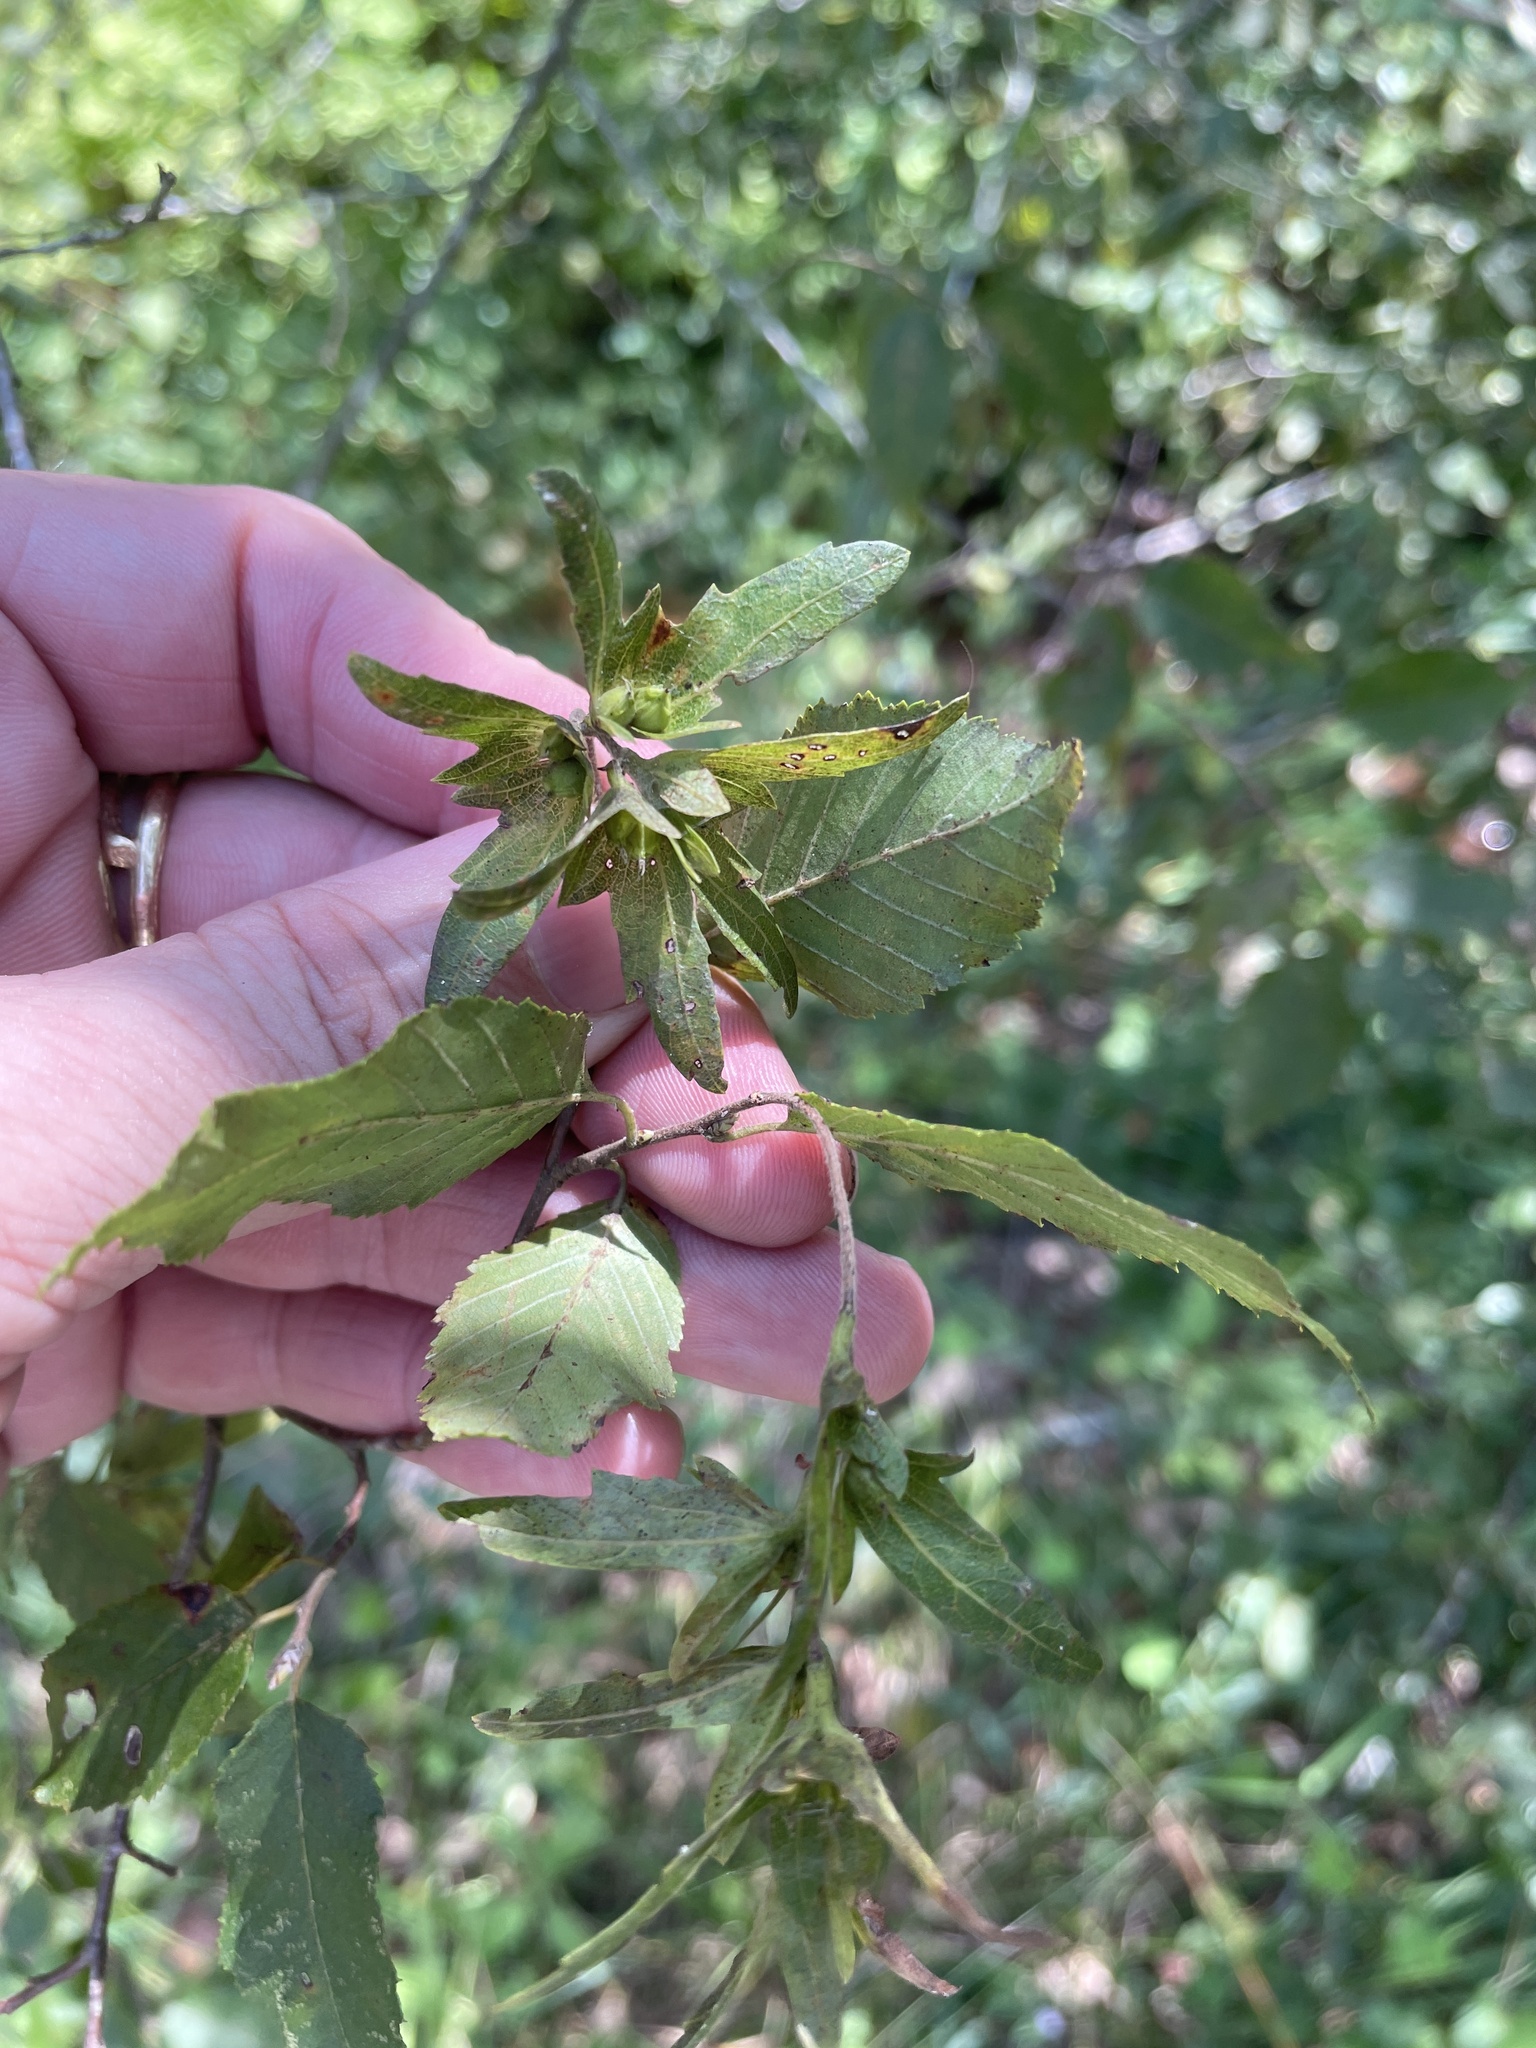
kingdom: Plantae
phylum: Tracheophyta
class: Magnoliopsida
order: Fagales
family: Betulaceae
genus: Carpinus
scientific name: Carpinus caroliniana
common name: American hornbeam
